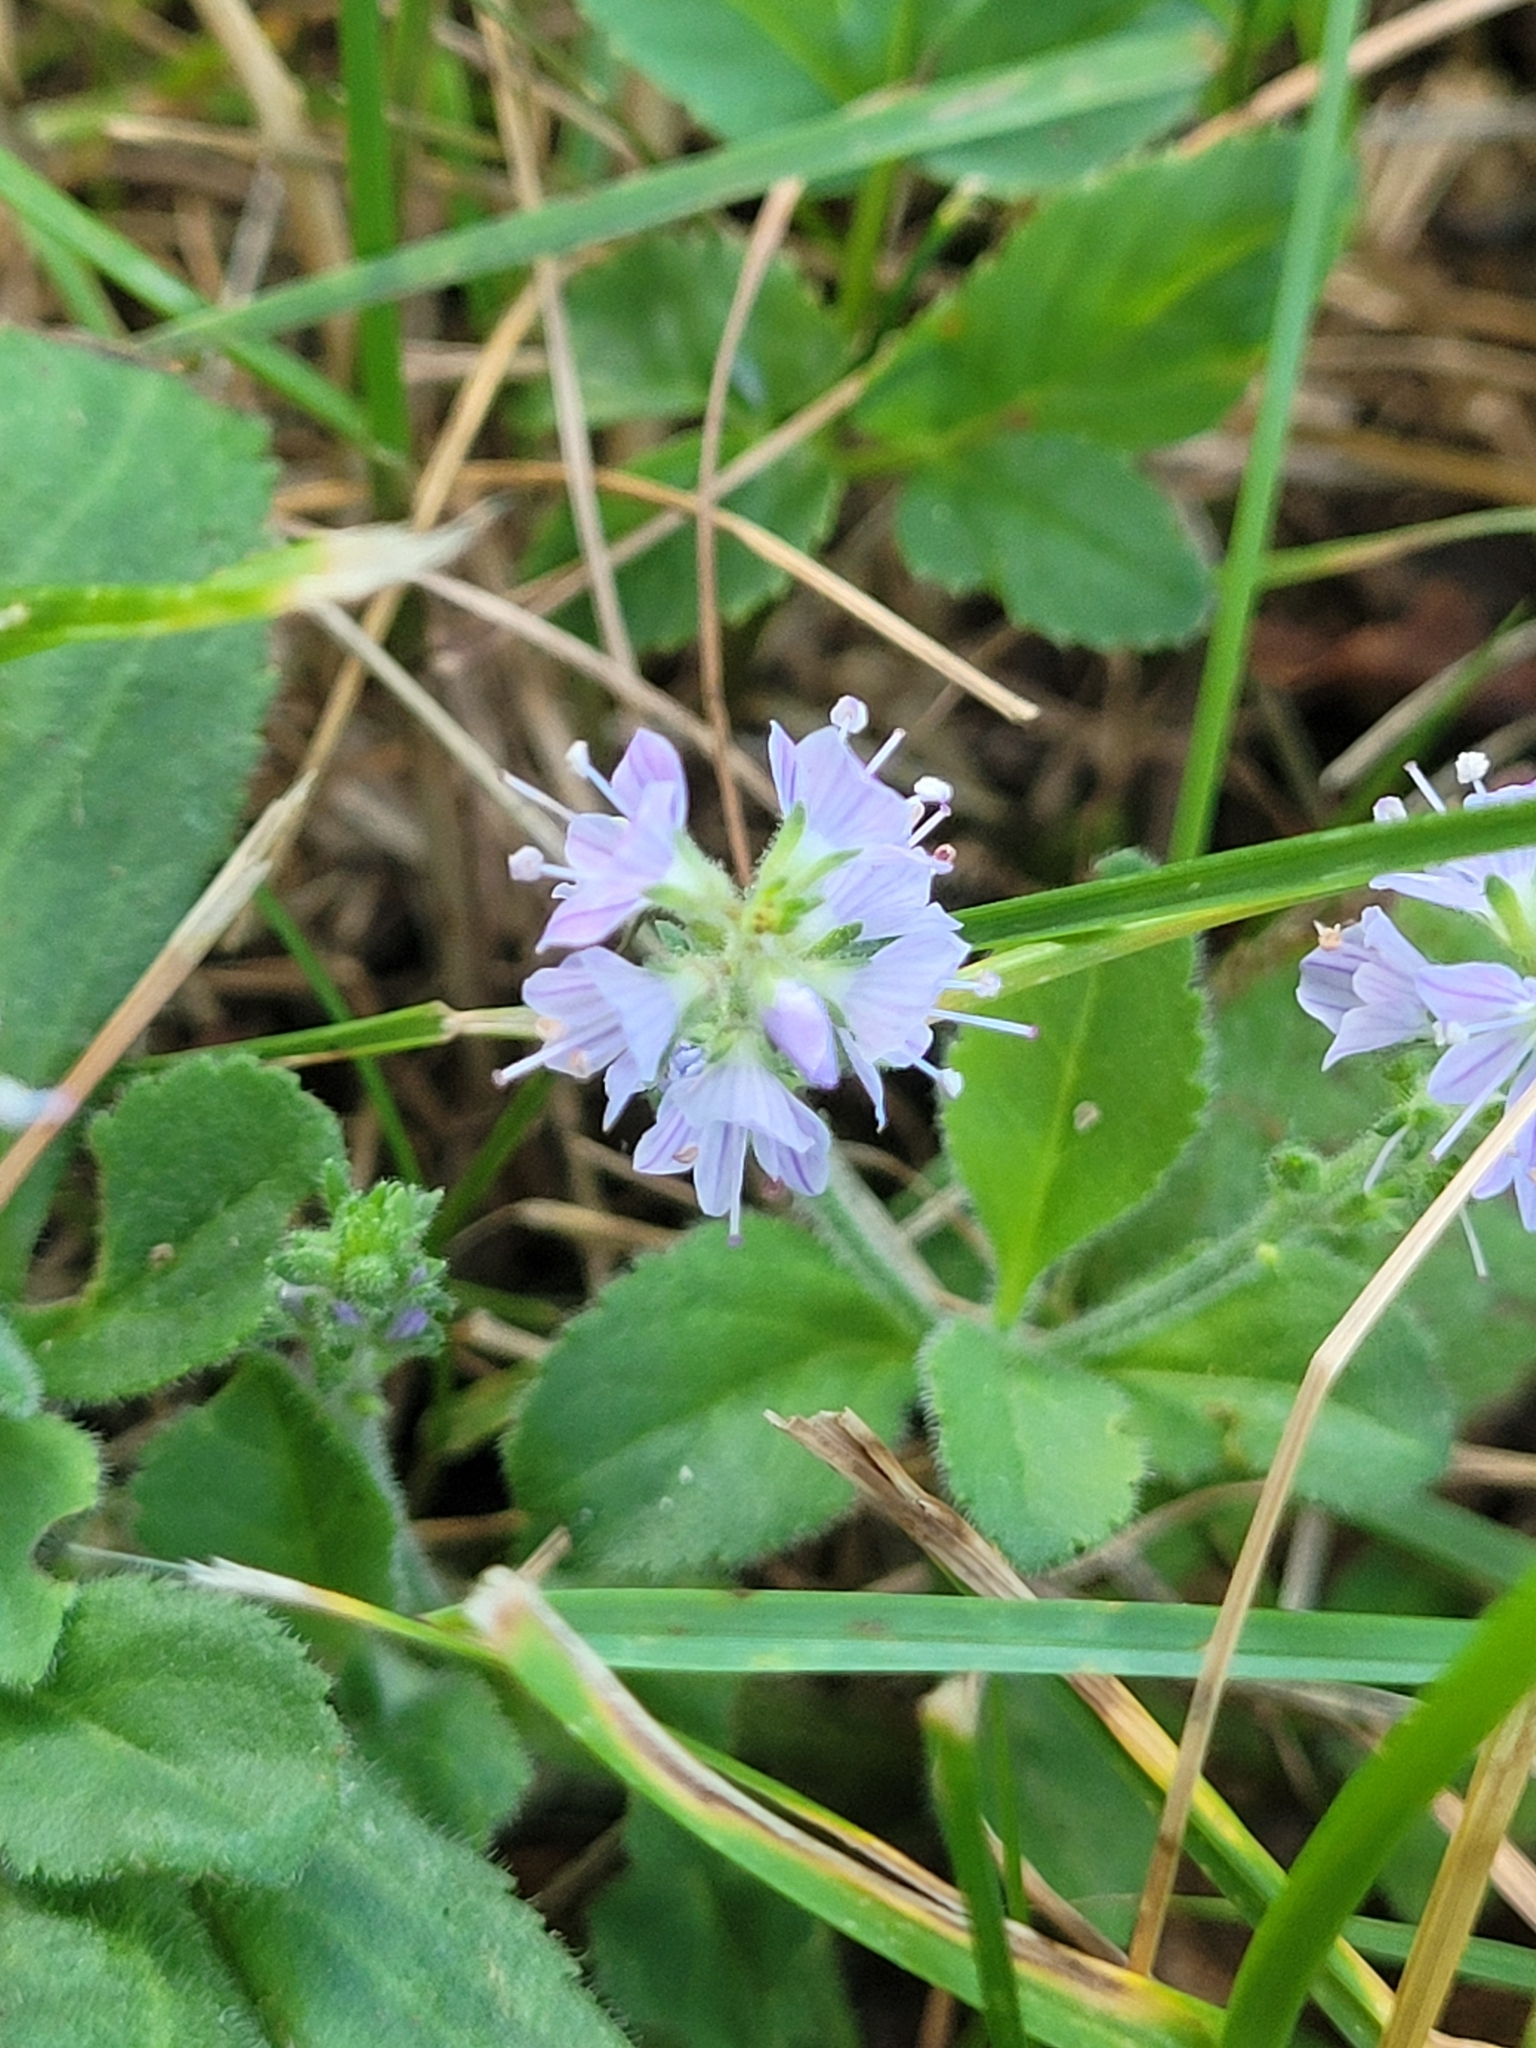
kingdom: Plantae
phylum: Tracheophyta
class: Magnoliopsida
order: Lamiales
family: Plantaginaceae
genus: Veronica
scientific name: Veronica officinalis
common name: Common speedwell
